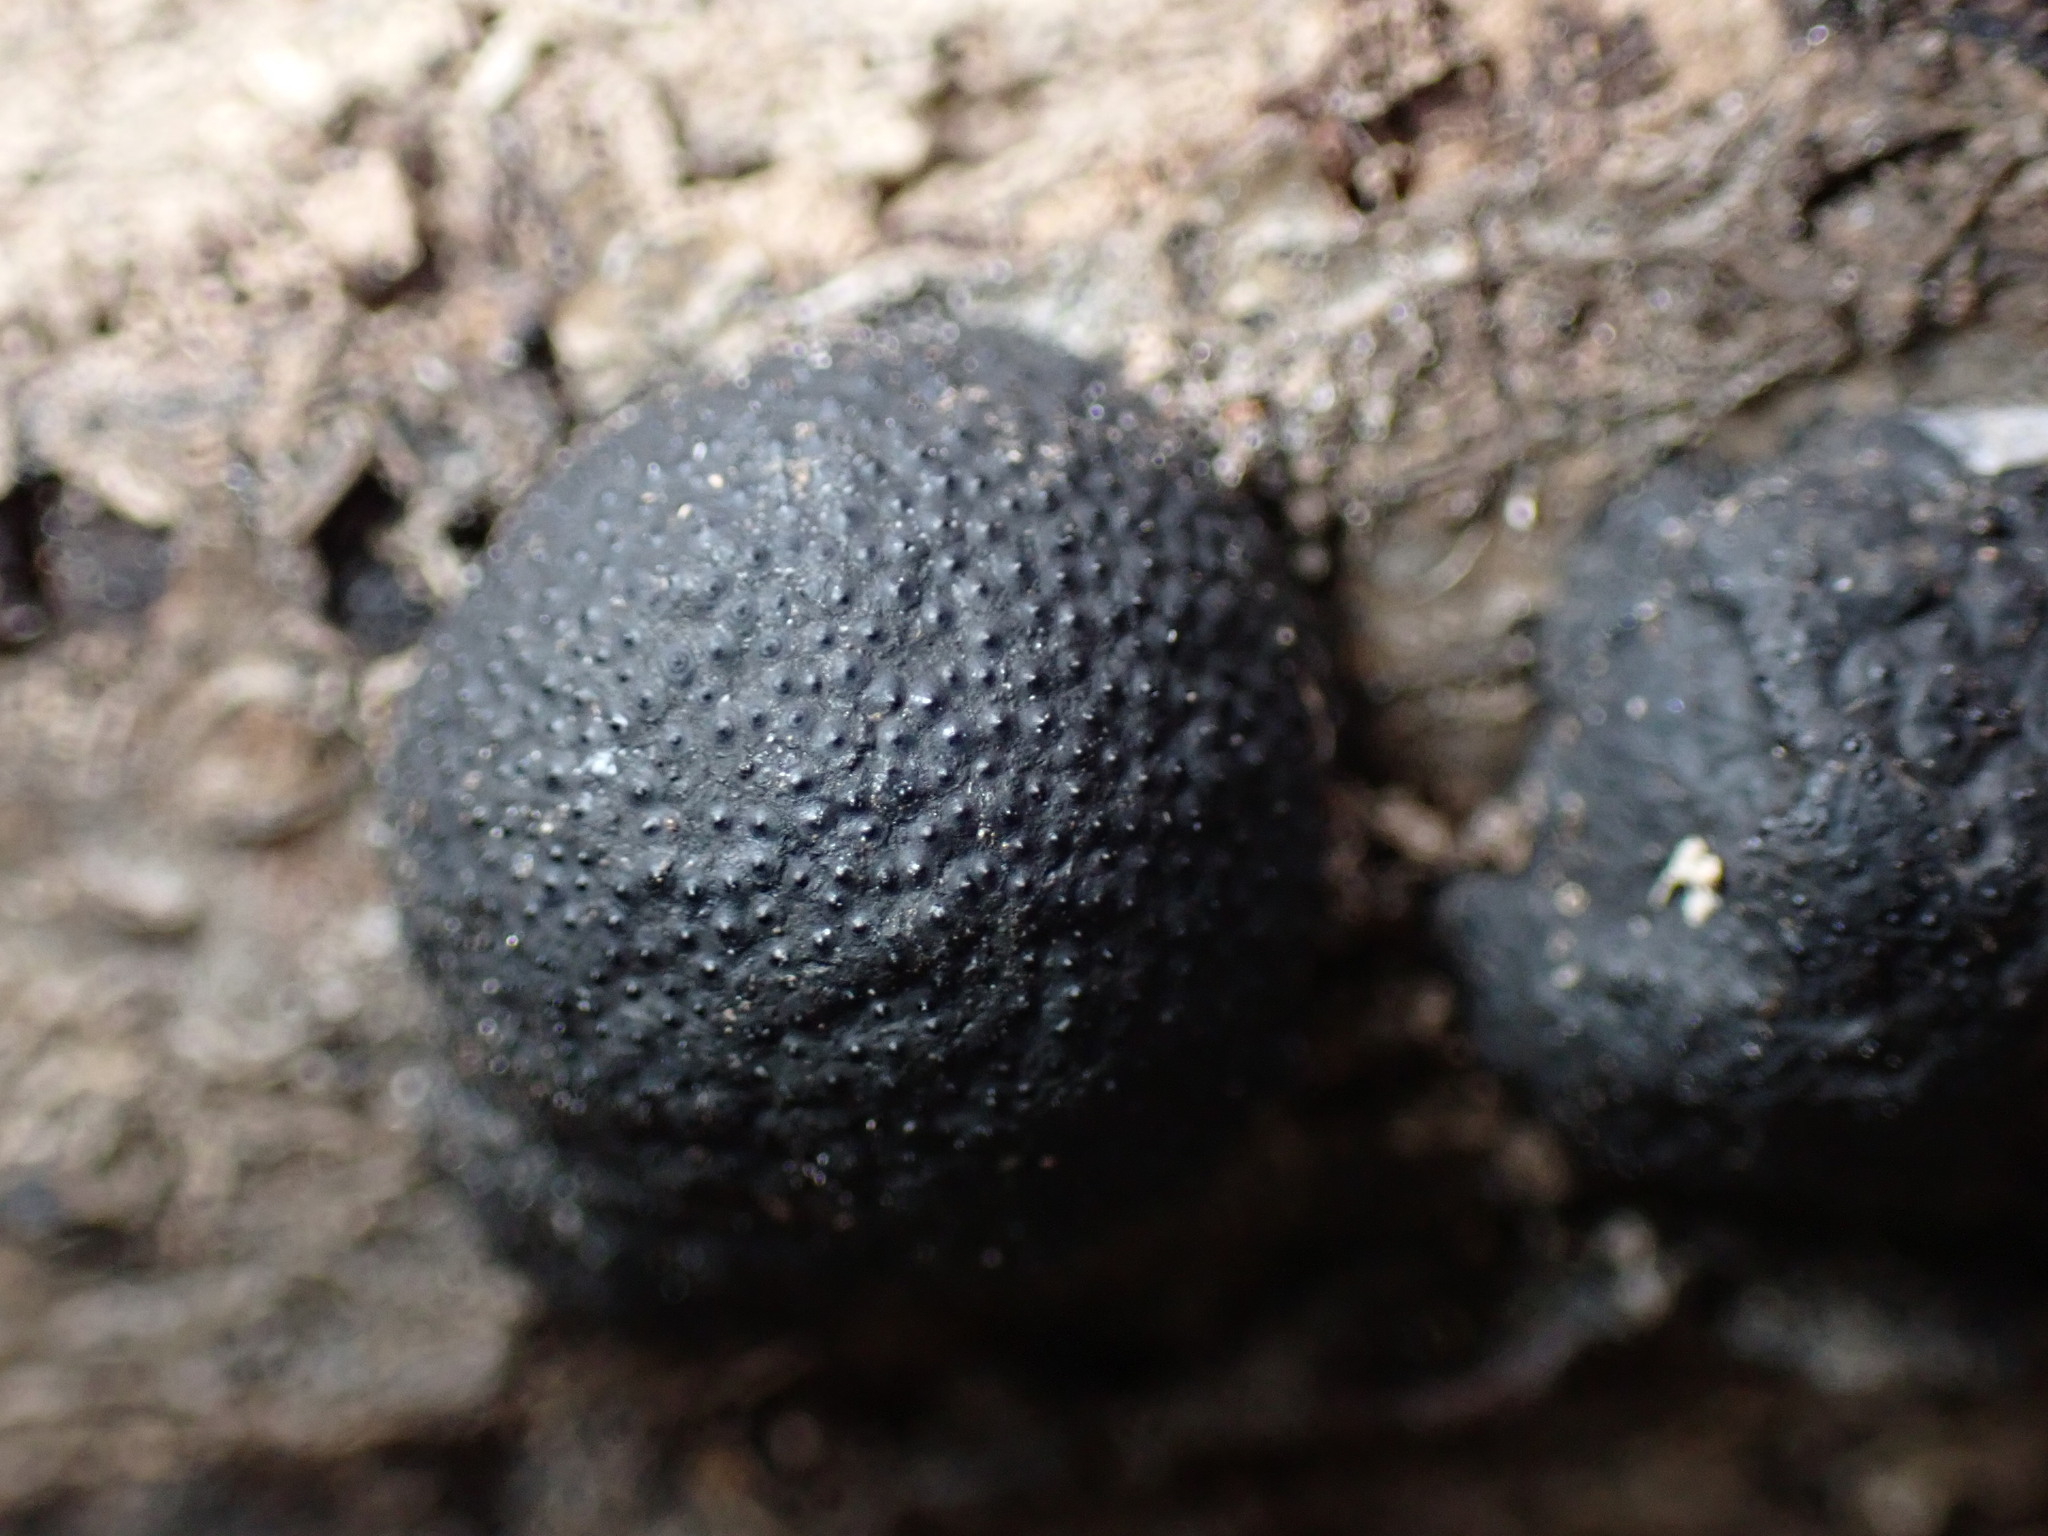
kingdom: Fungi
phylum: Ascomycota
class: Sordariomycetes
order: Xylariales
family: Hypoxylaceae
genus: Annulohypoxylon
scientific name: Annulohypoxylon annulatum
